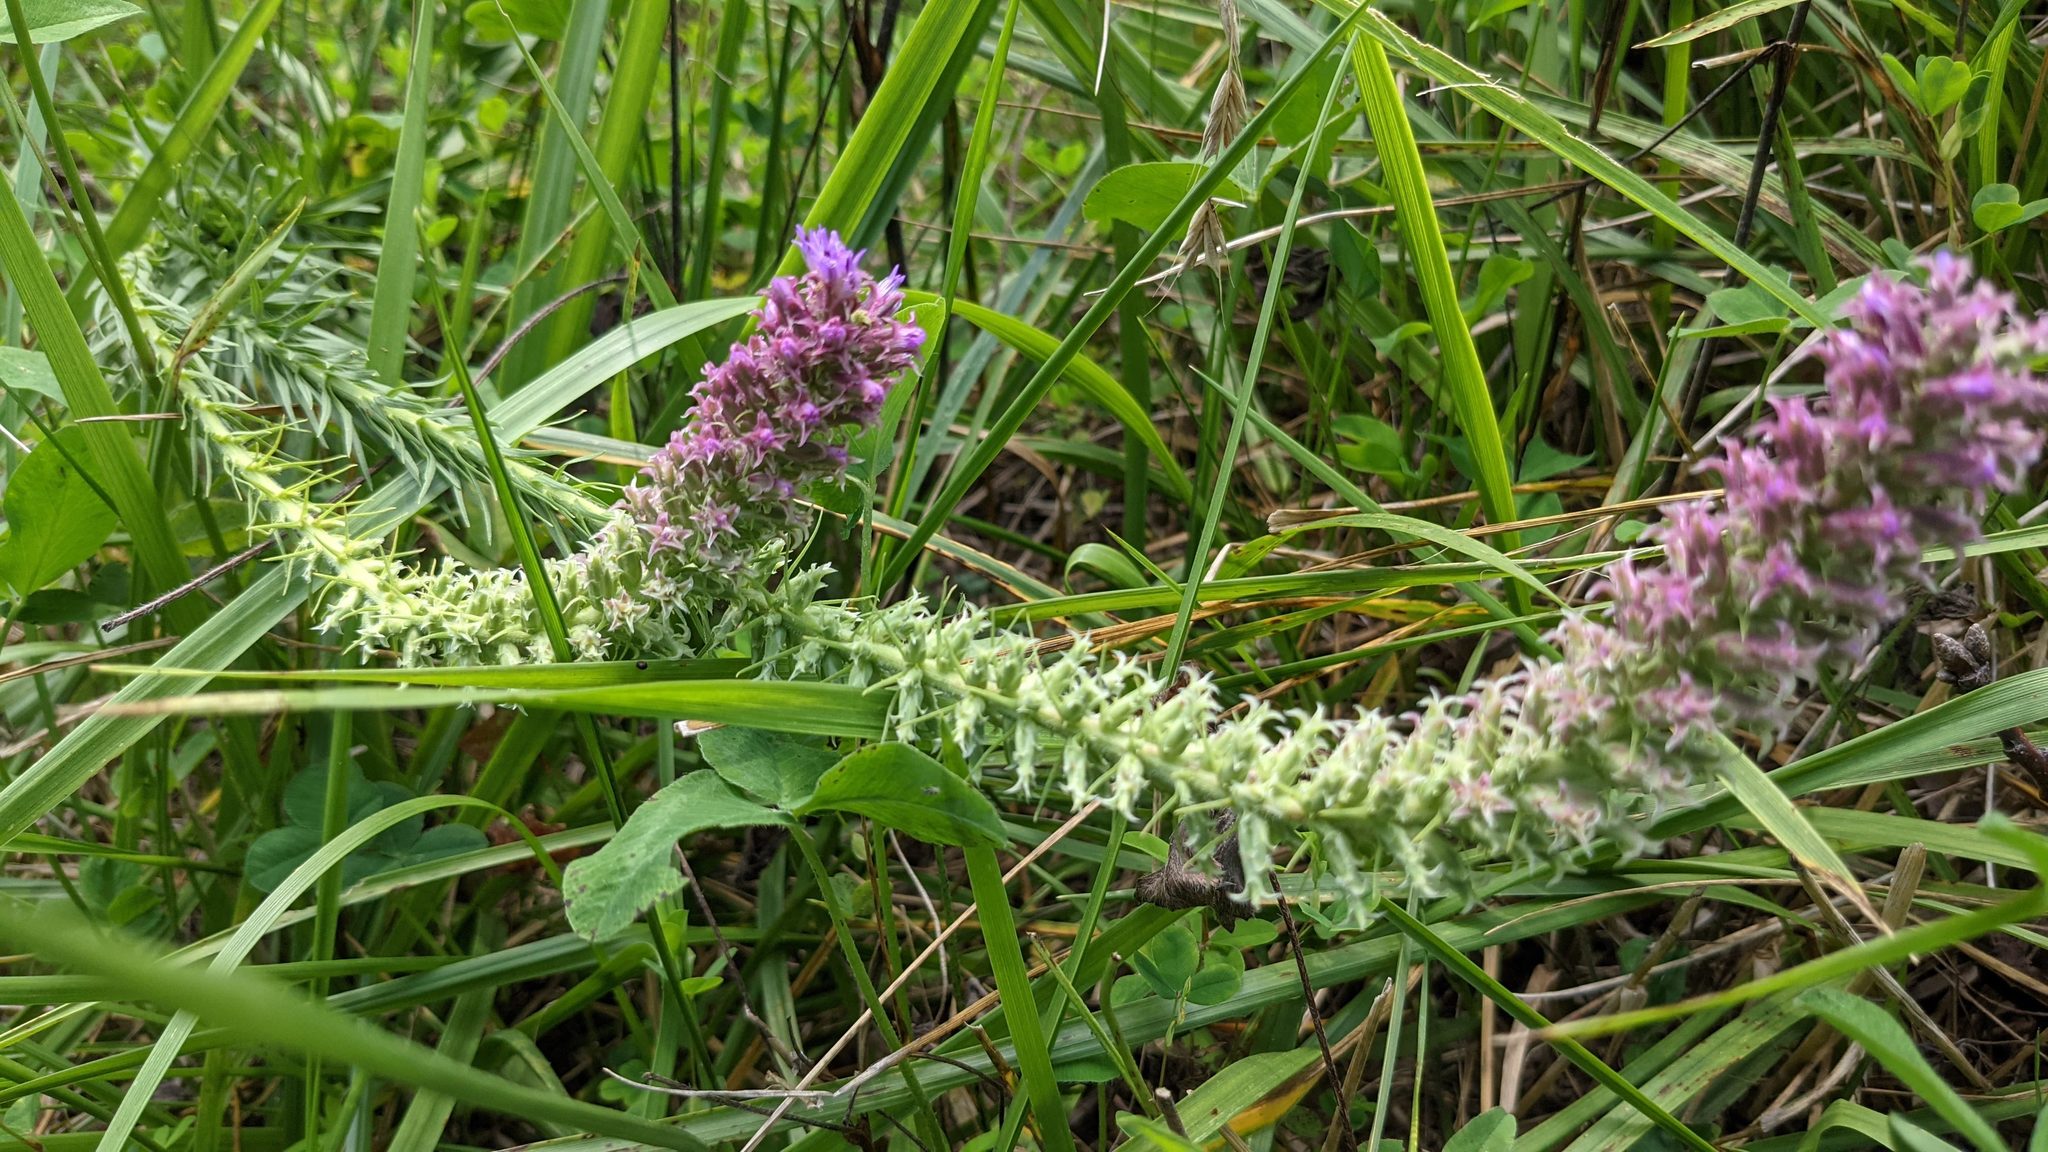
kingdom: Plantae
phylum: Tracheophyta
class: Magnoliopsida
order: Asterales
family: Asteraceae
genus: Liatris
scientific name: Liatris pycnostachya
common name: Cattail gayfeather
